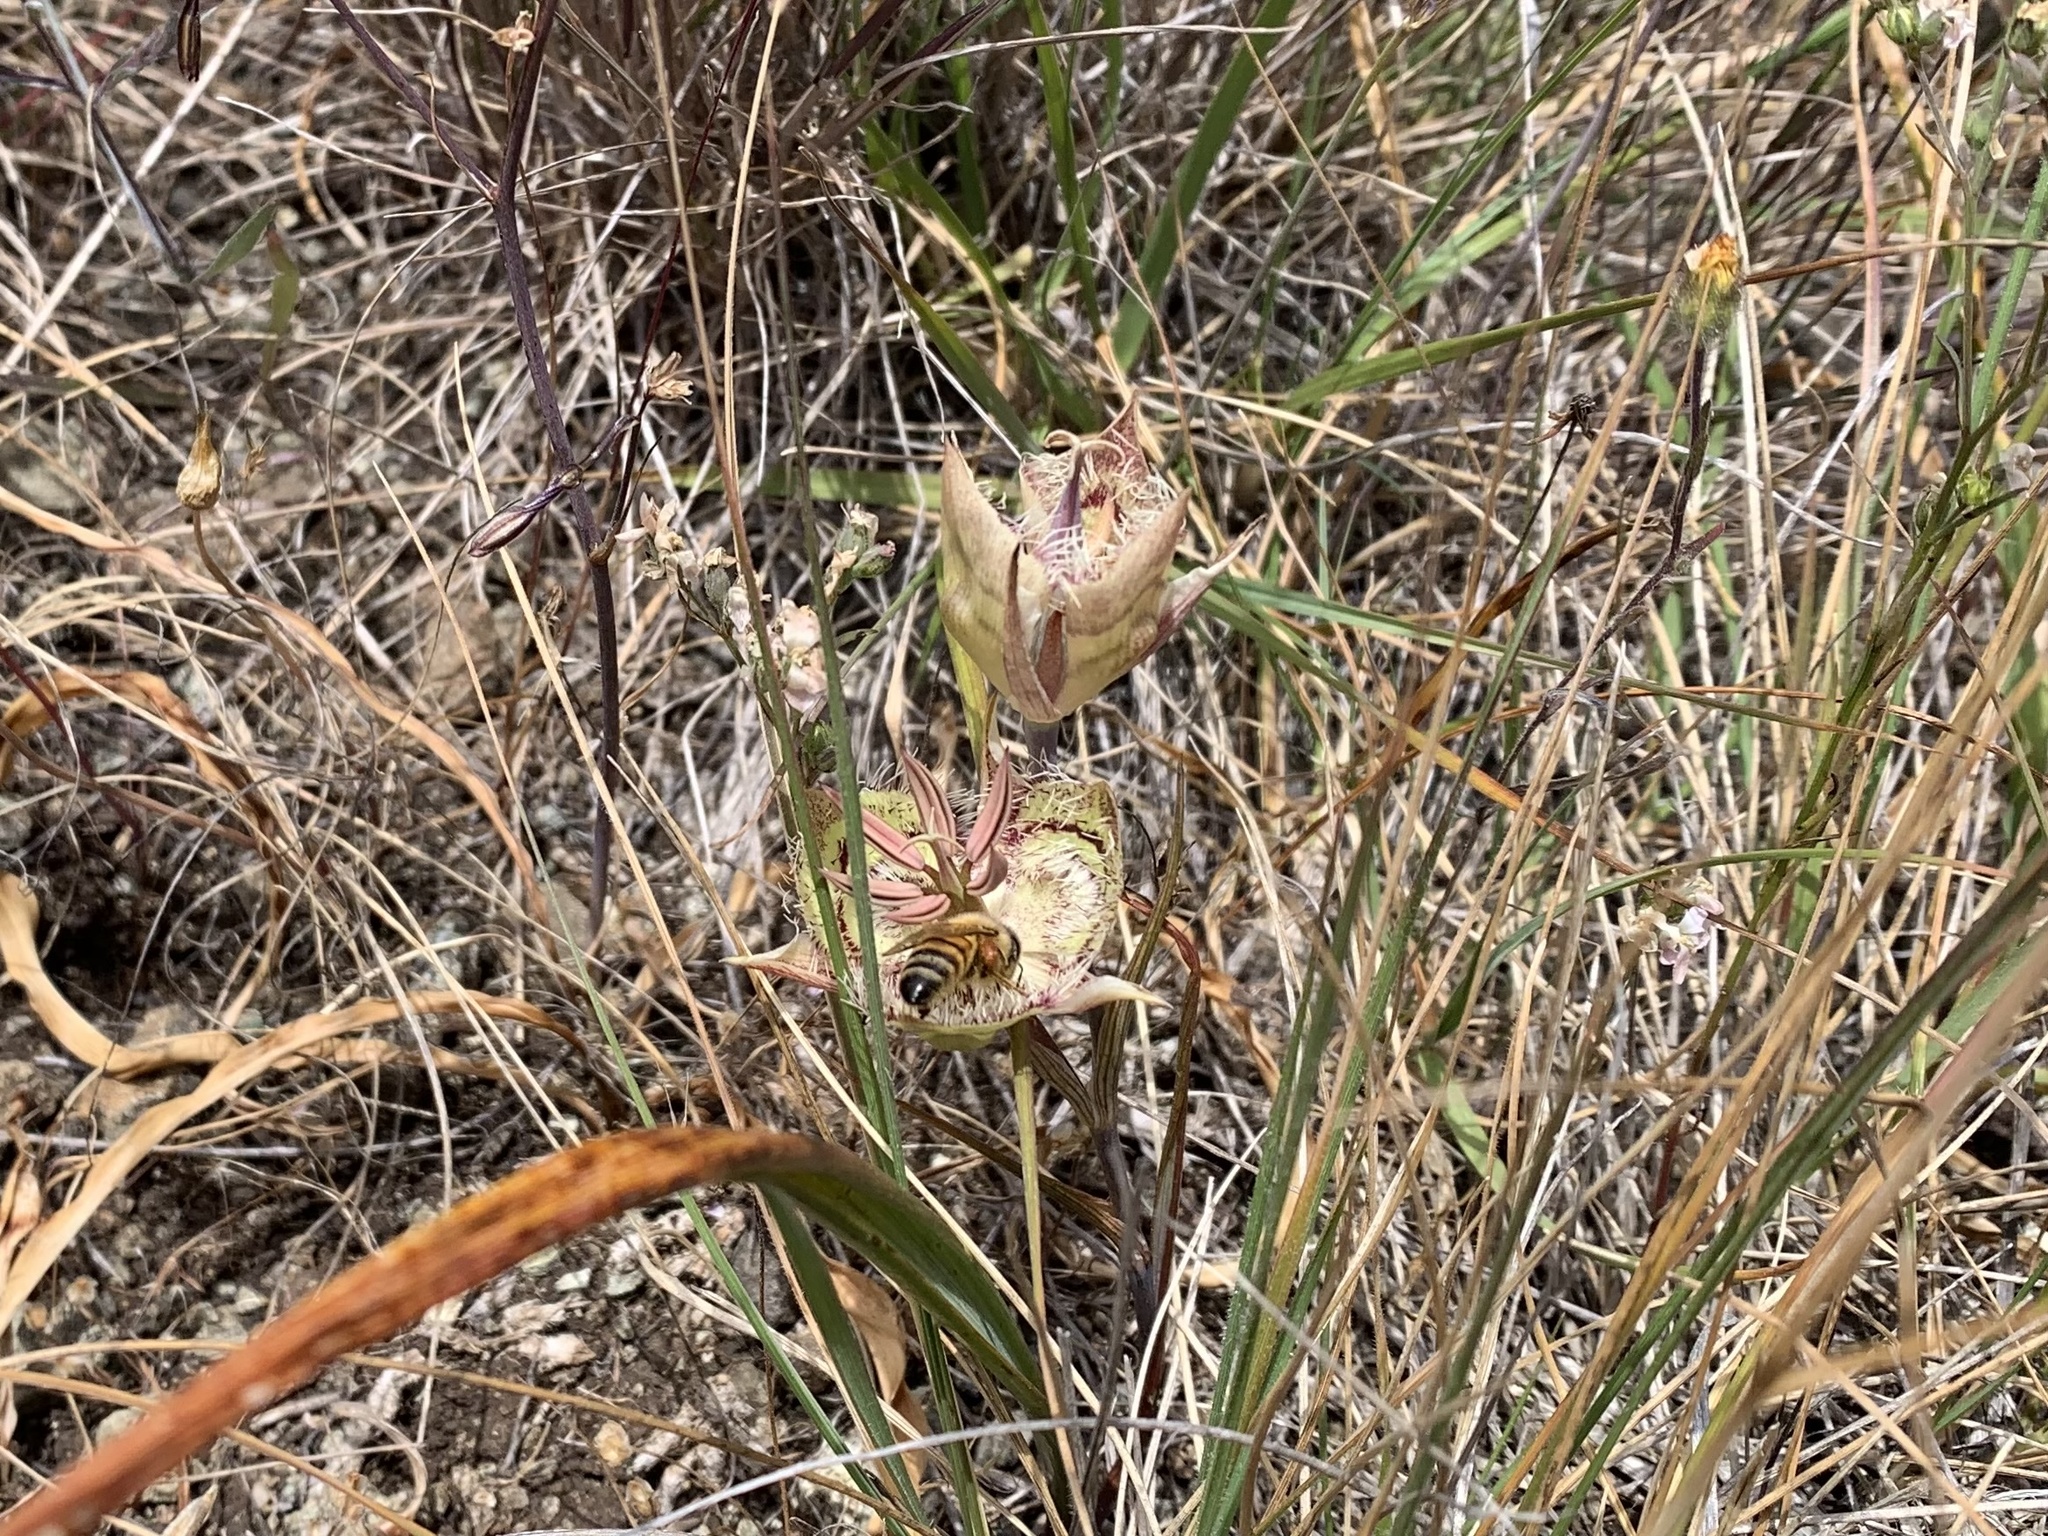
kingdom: Plantae
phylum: Tracheophyta
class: Liliopsida
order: Liliales
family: Liliaceae
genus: Calochortus
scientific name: Calochortus tiburonensis
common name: Tiburon mariposa-lily
